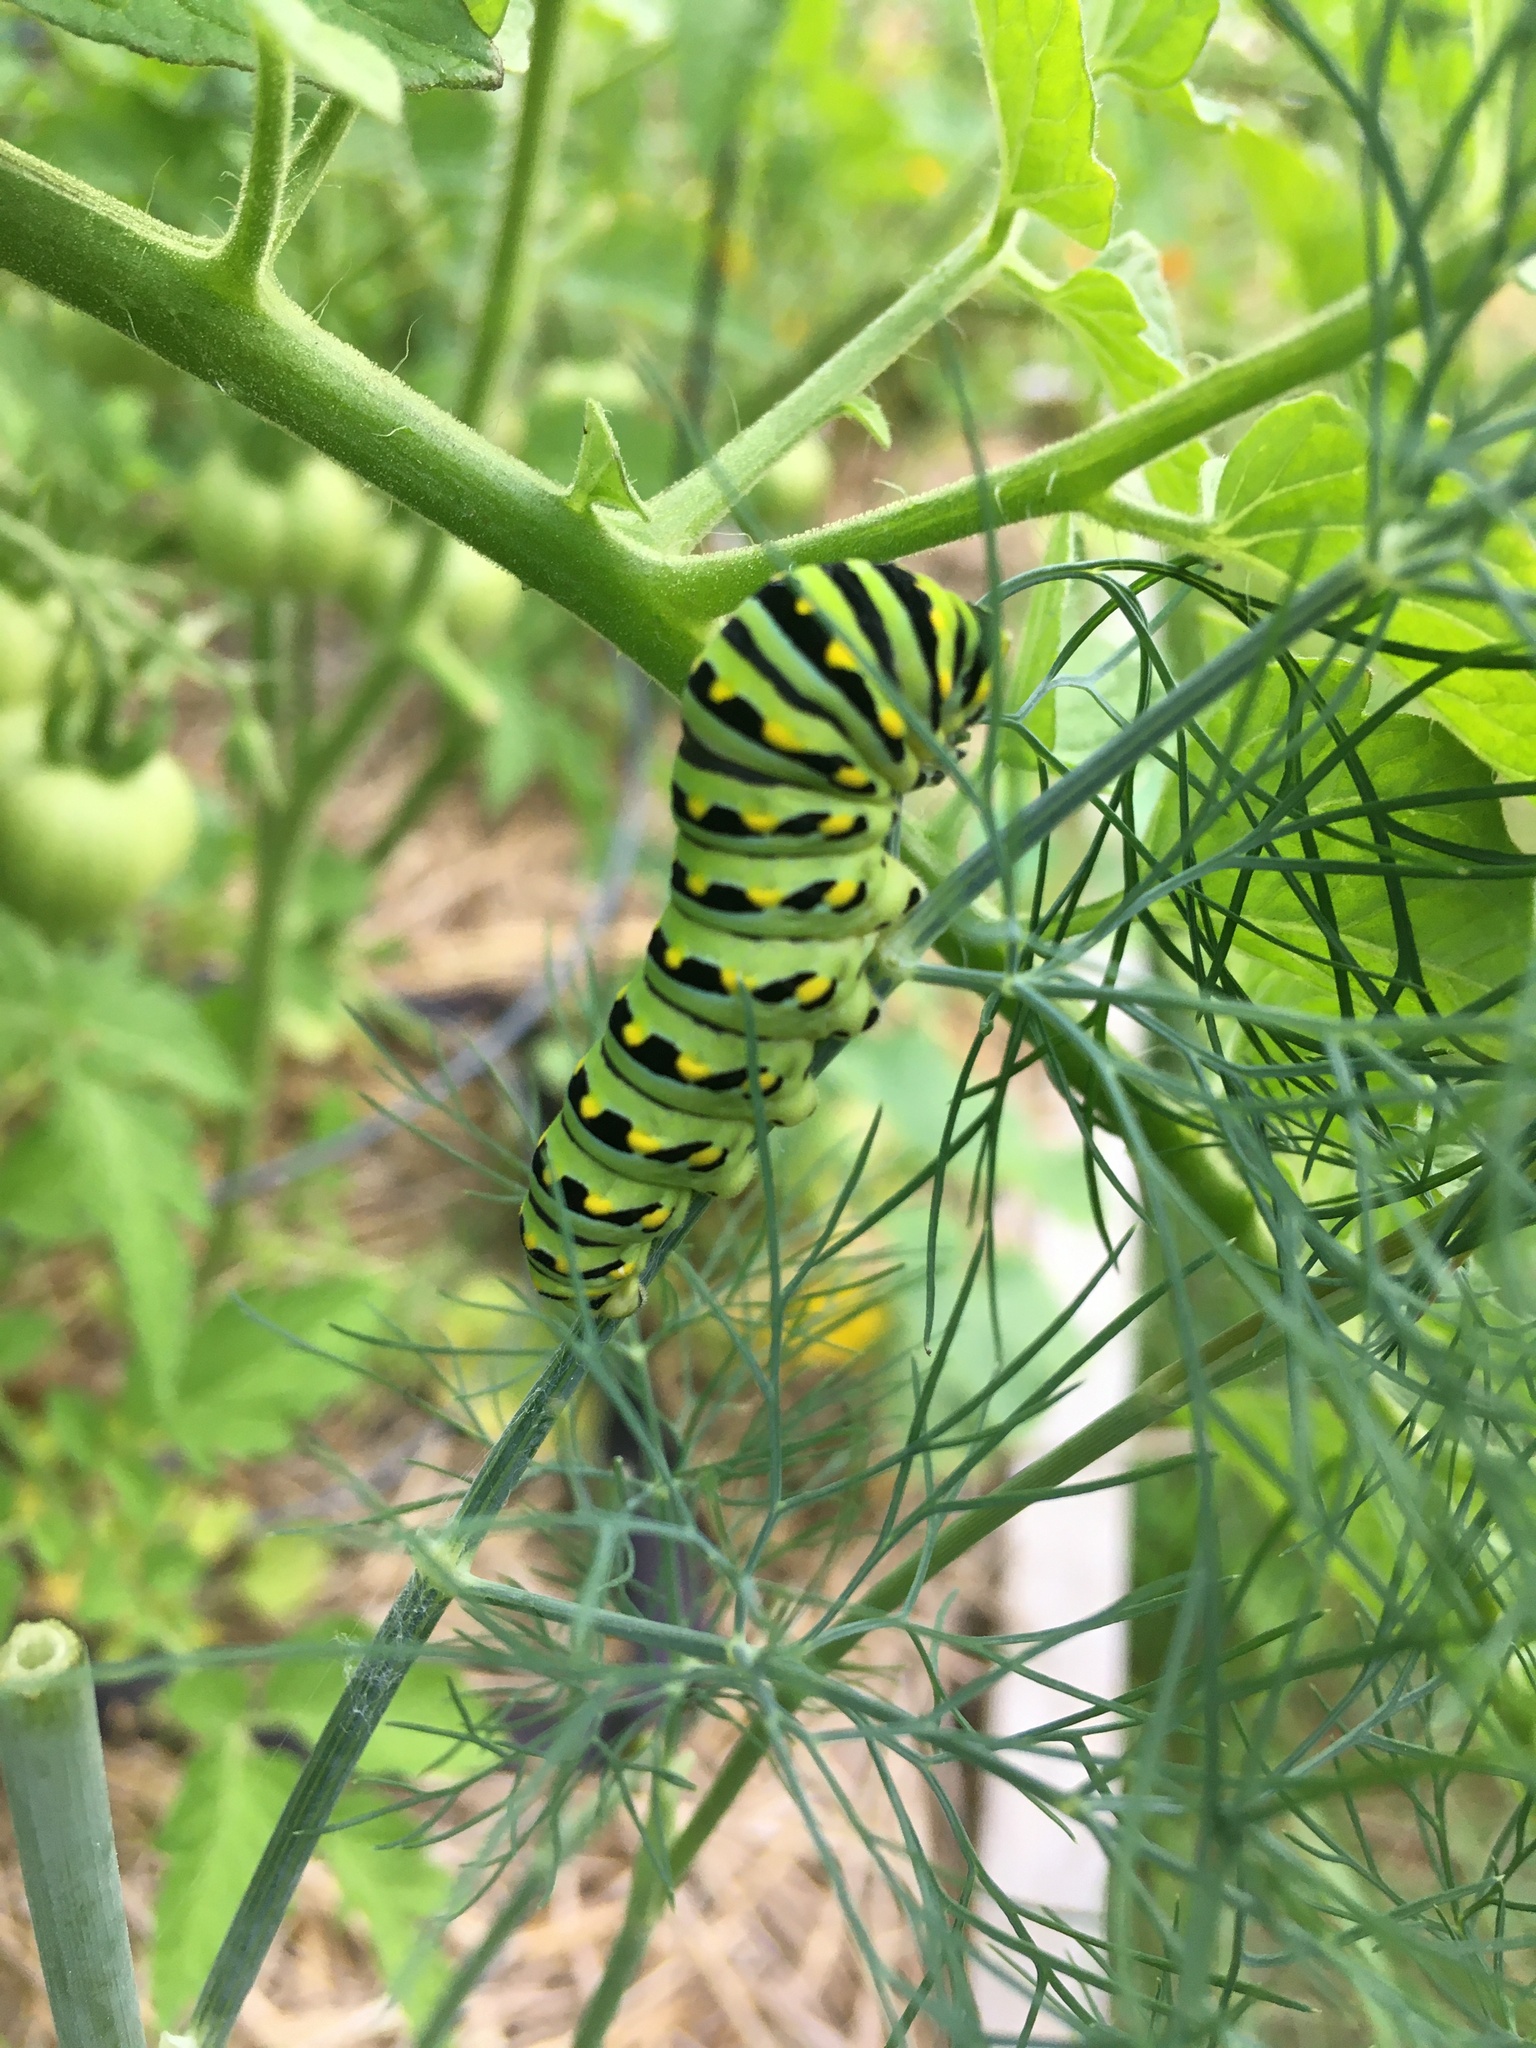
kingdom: Animalia
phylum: Arthropoda
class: Insecta
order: Lepidoptera
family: Papilionidae
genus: Papilio
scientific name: Papilio polyxenes
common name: Black swallowtail
